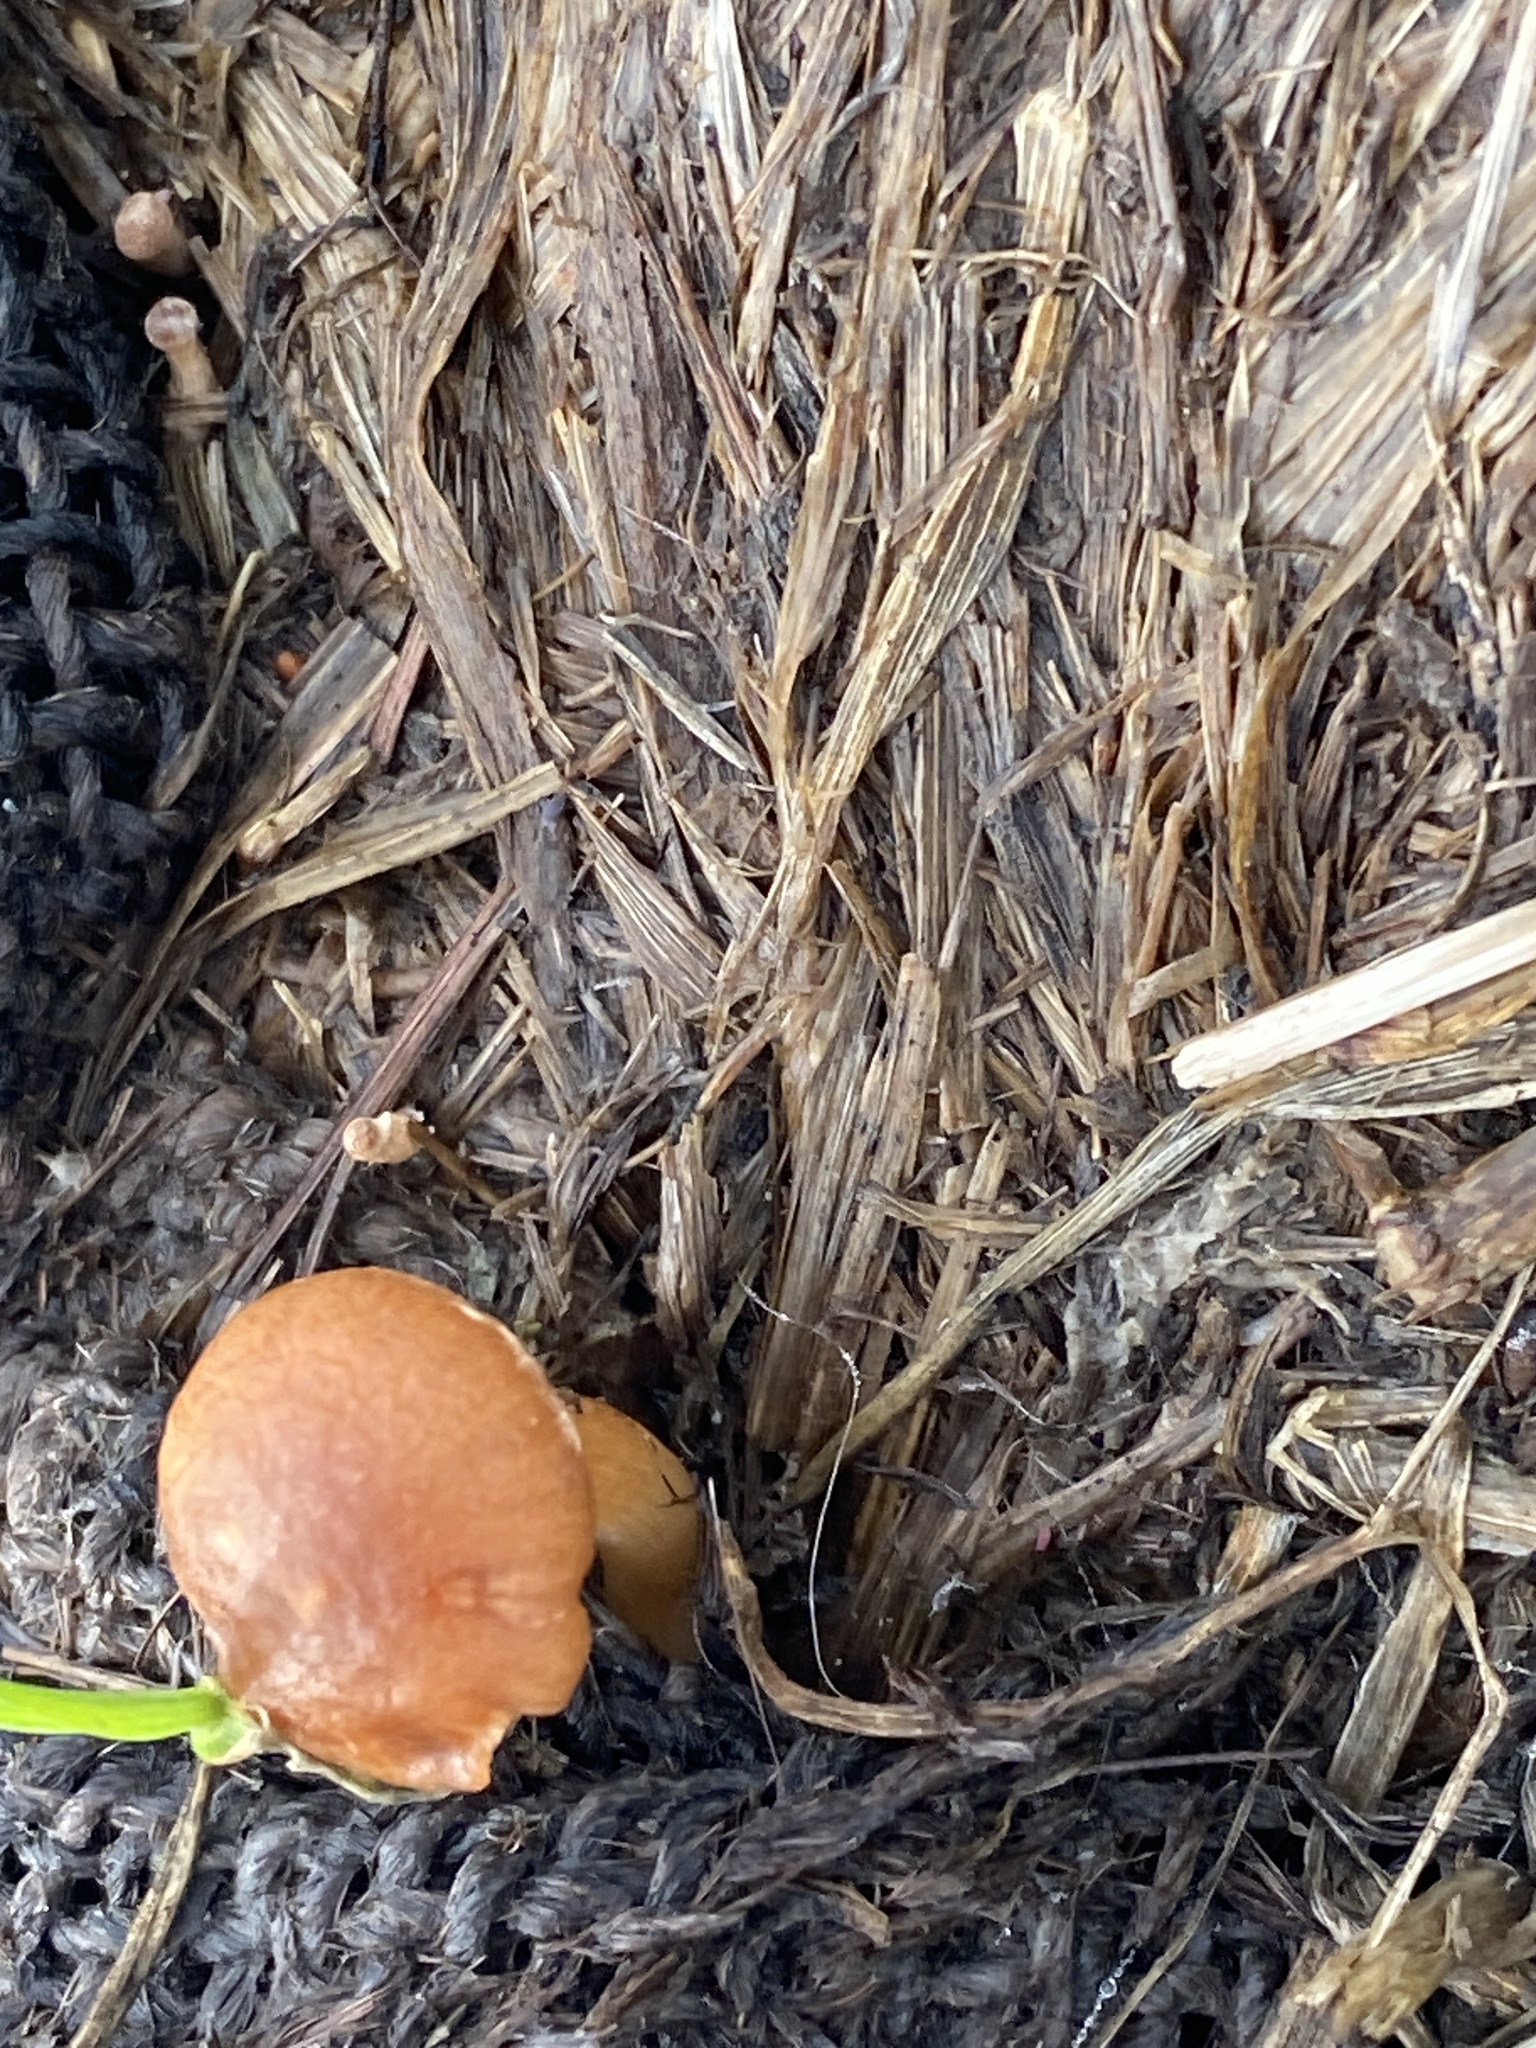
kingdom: Fungi
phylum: Basidiomycota
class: Agaricomycetes
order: Agaricales
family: Tubariaceae
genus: Tubaria
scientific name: Tubaria furfuracea
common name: Scurfy twiglet
